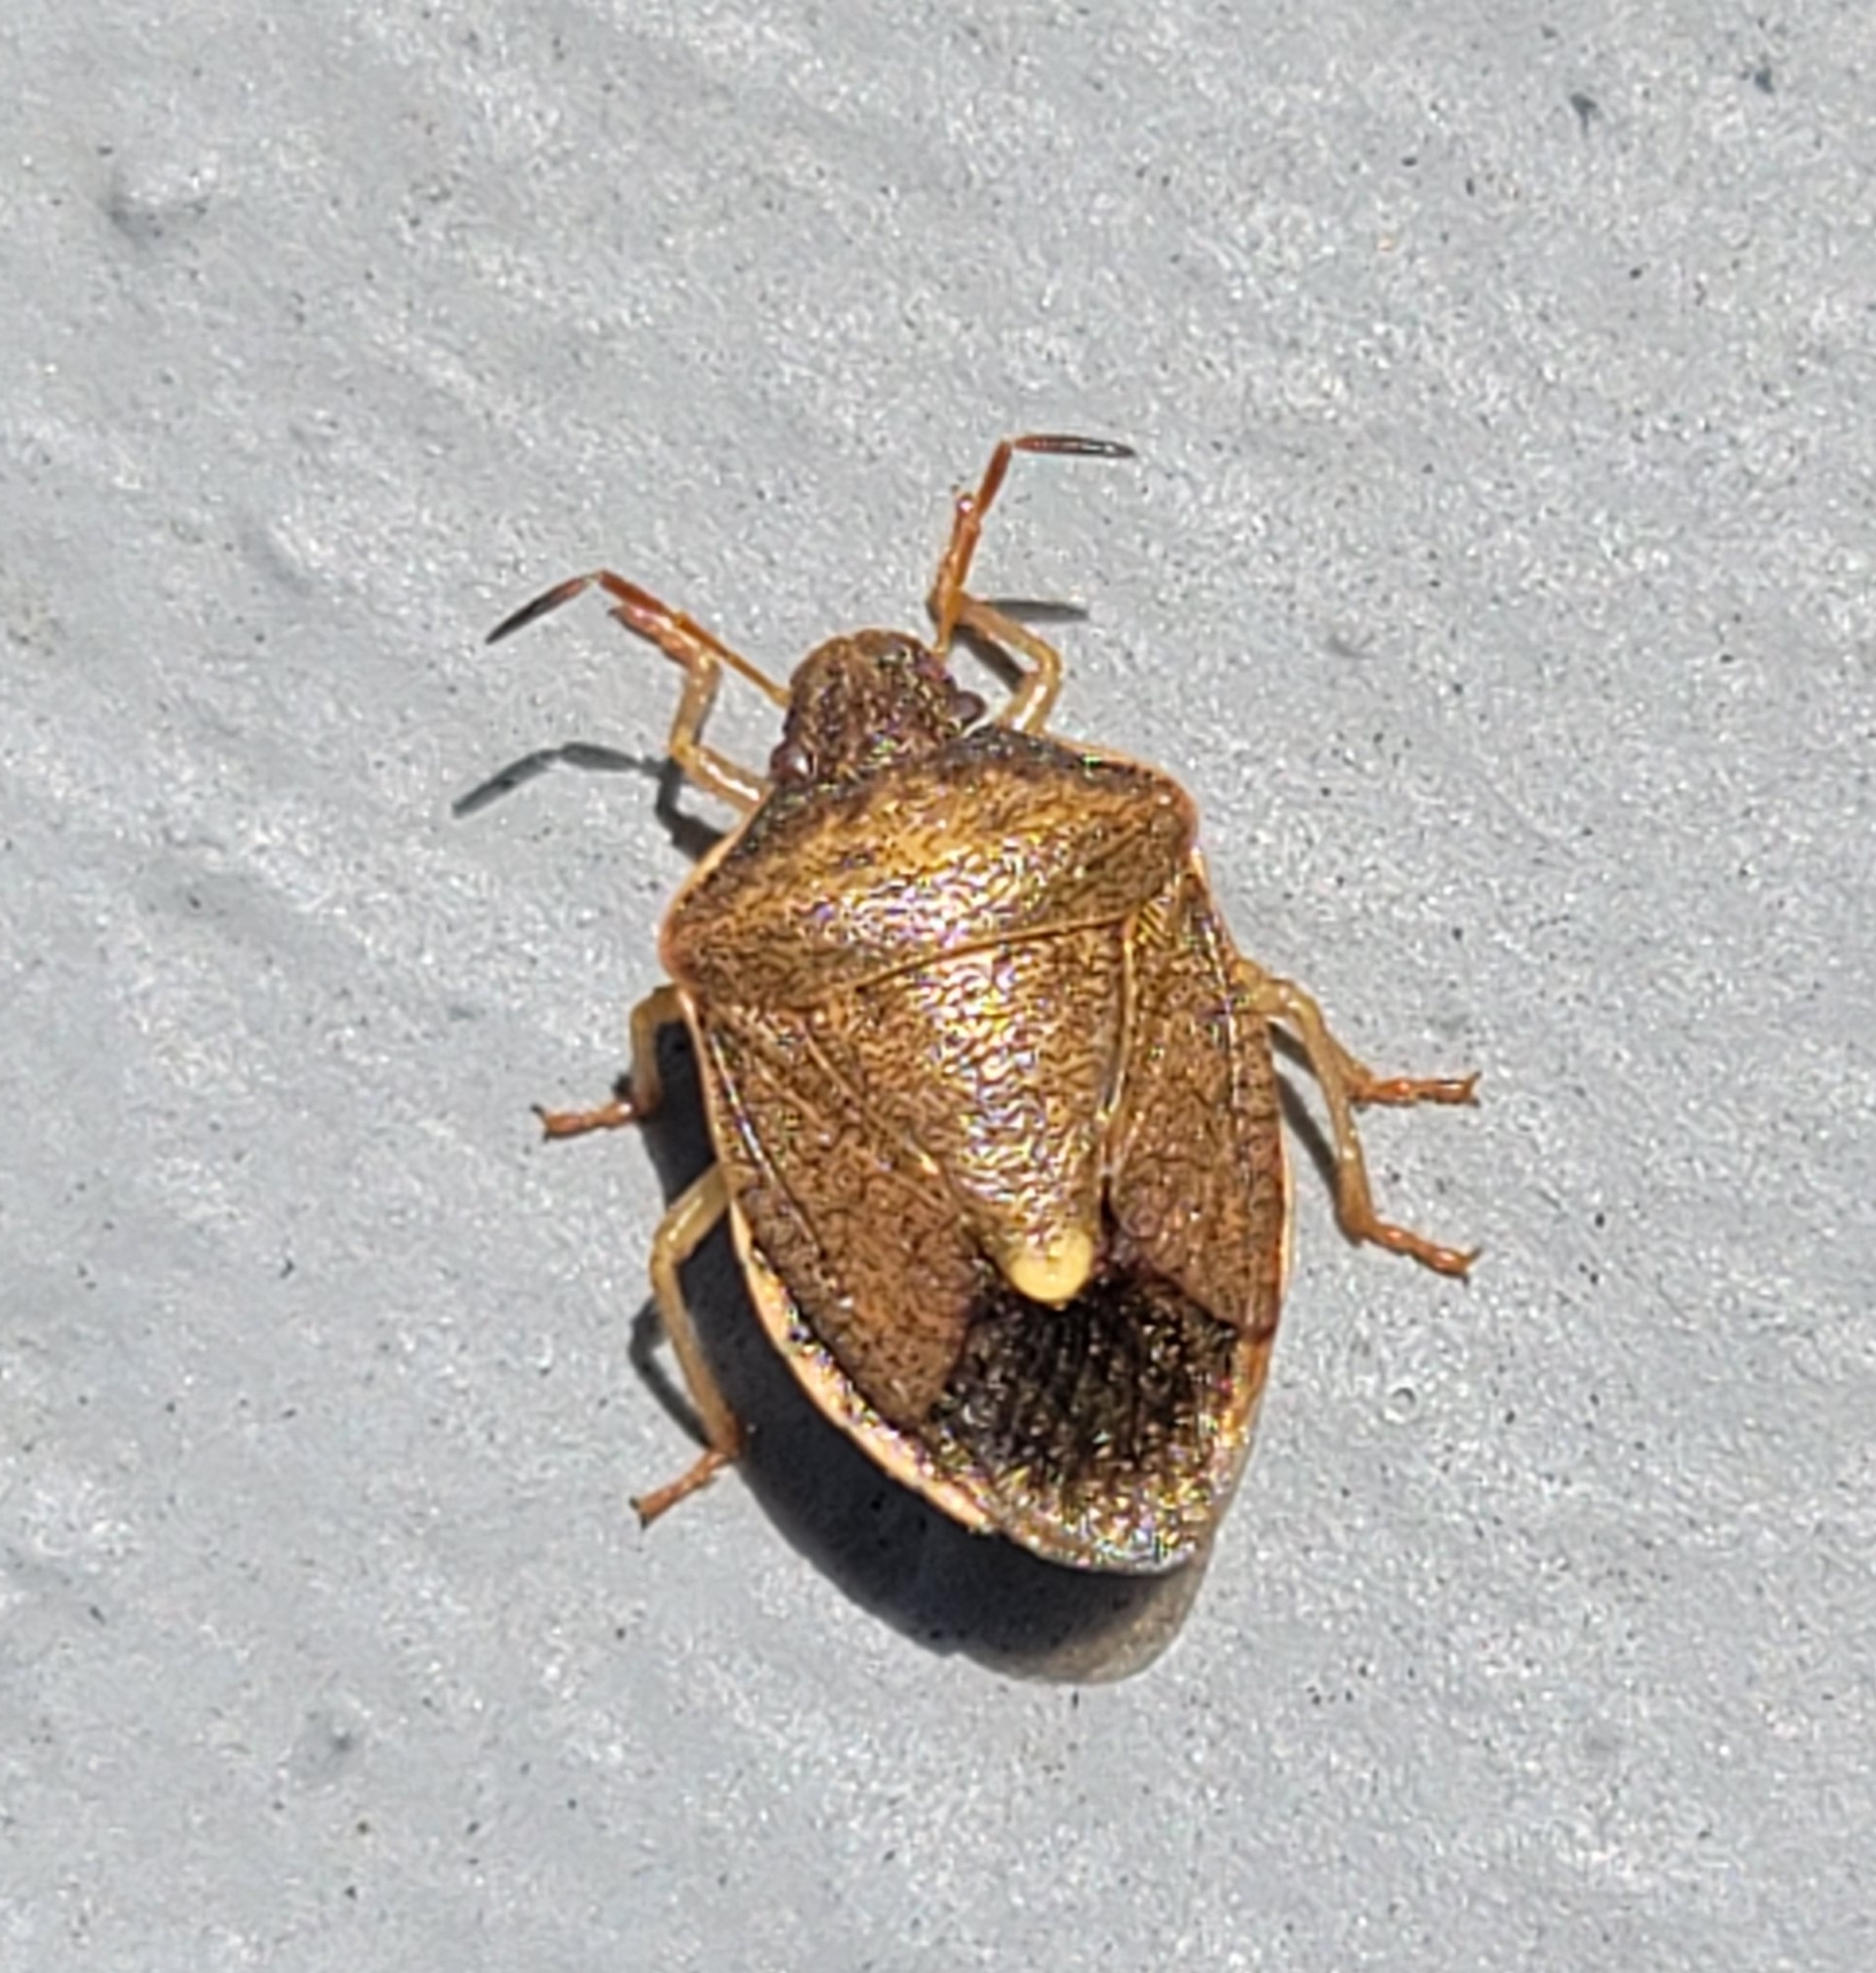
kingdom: Animalia
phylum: Arthropoda
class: Insecta
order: Hemiptera
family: Pentatomidae
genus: Holcostethus
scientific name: Holcostethus limbolarius
